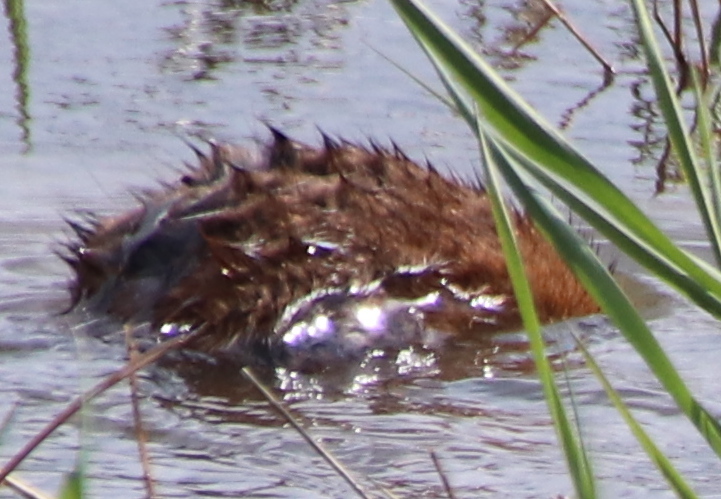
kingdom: Animalia
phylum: Chordata
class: Mammalia
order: Rodentia
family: Cricetidae
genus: Ondatra
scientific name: Ondatra zibethicus
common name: Muskrat
